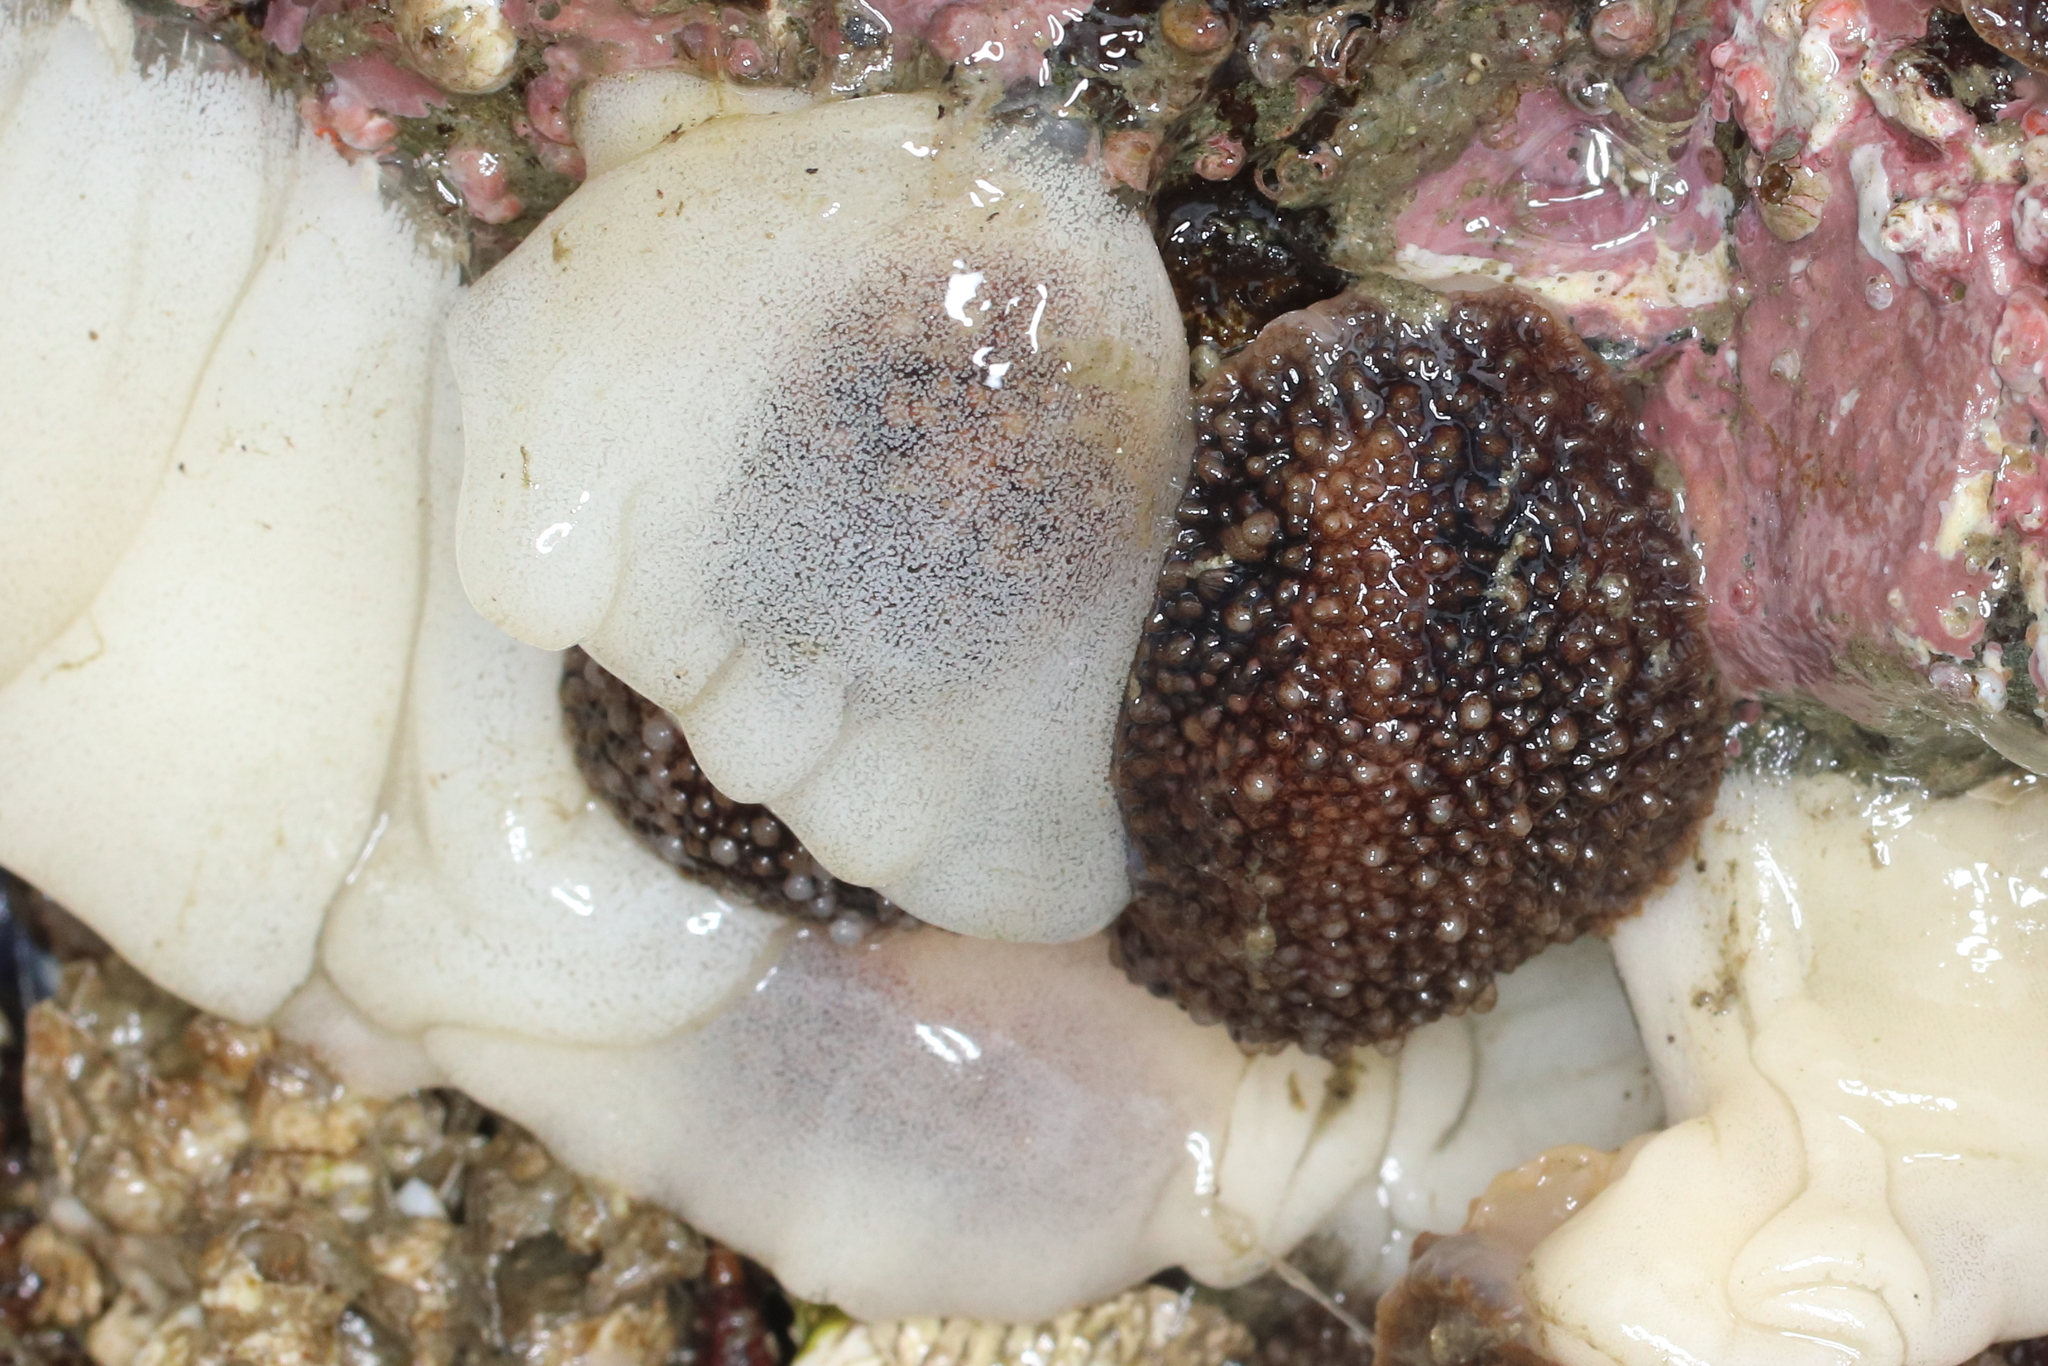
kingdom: Animalia
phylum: Mollusca
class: Gastropoda
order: Nudibranchia
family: Onchidorididae
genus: Onchidoris
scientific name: Onchidoris bilamellata
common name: Barnacle-eating onchidoris
